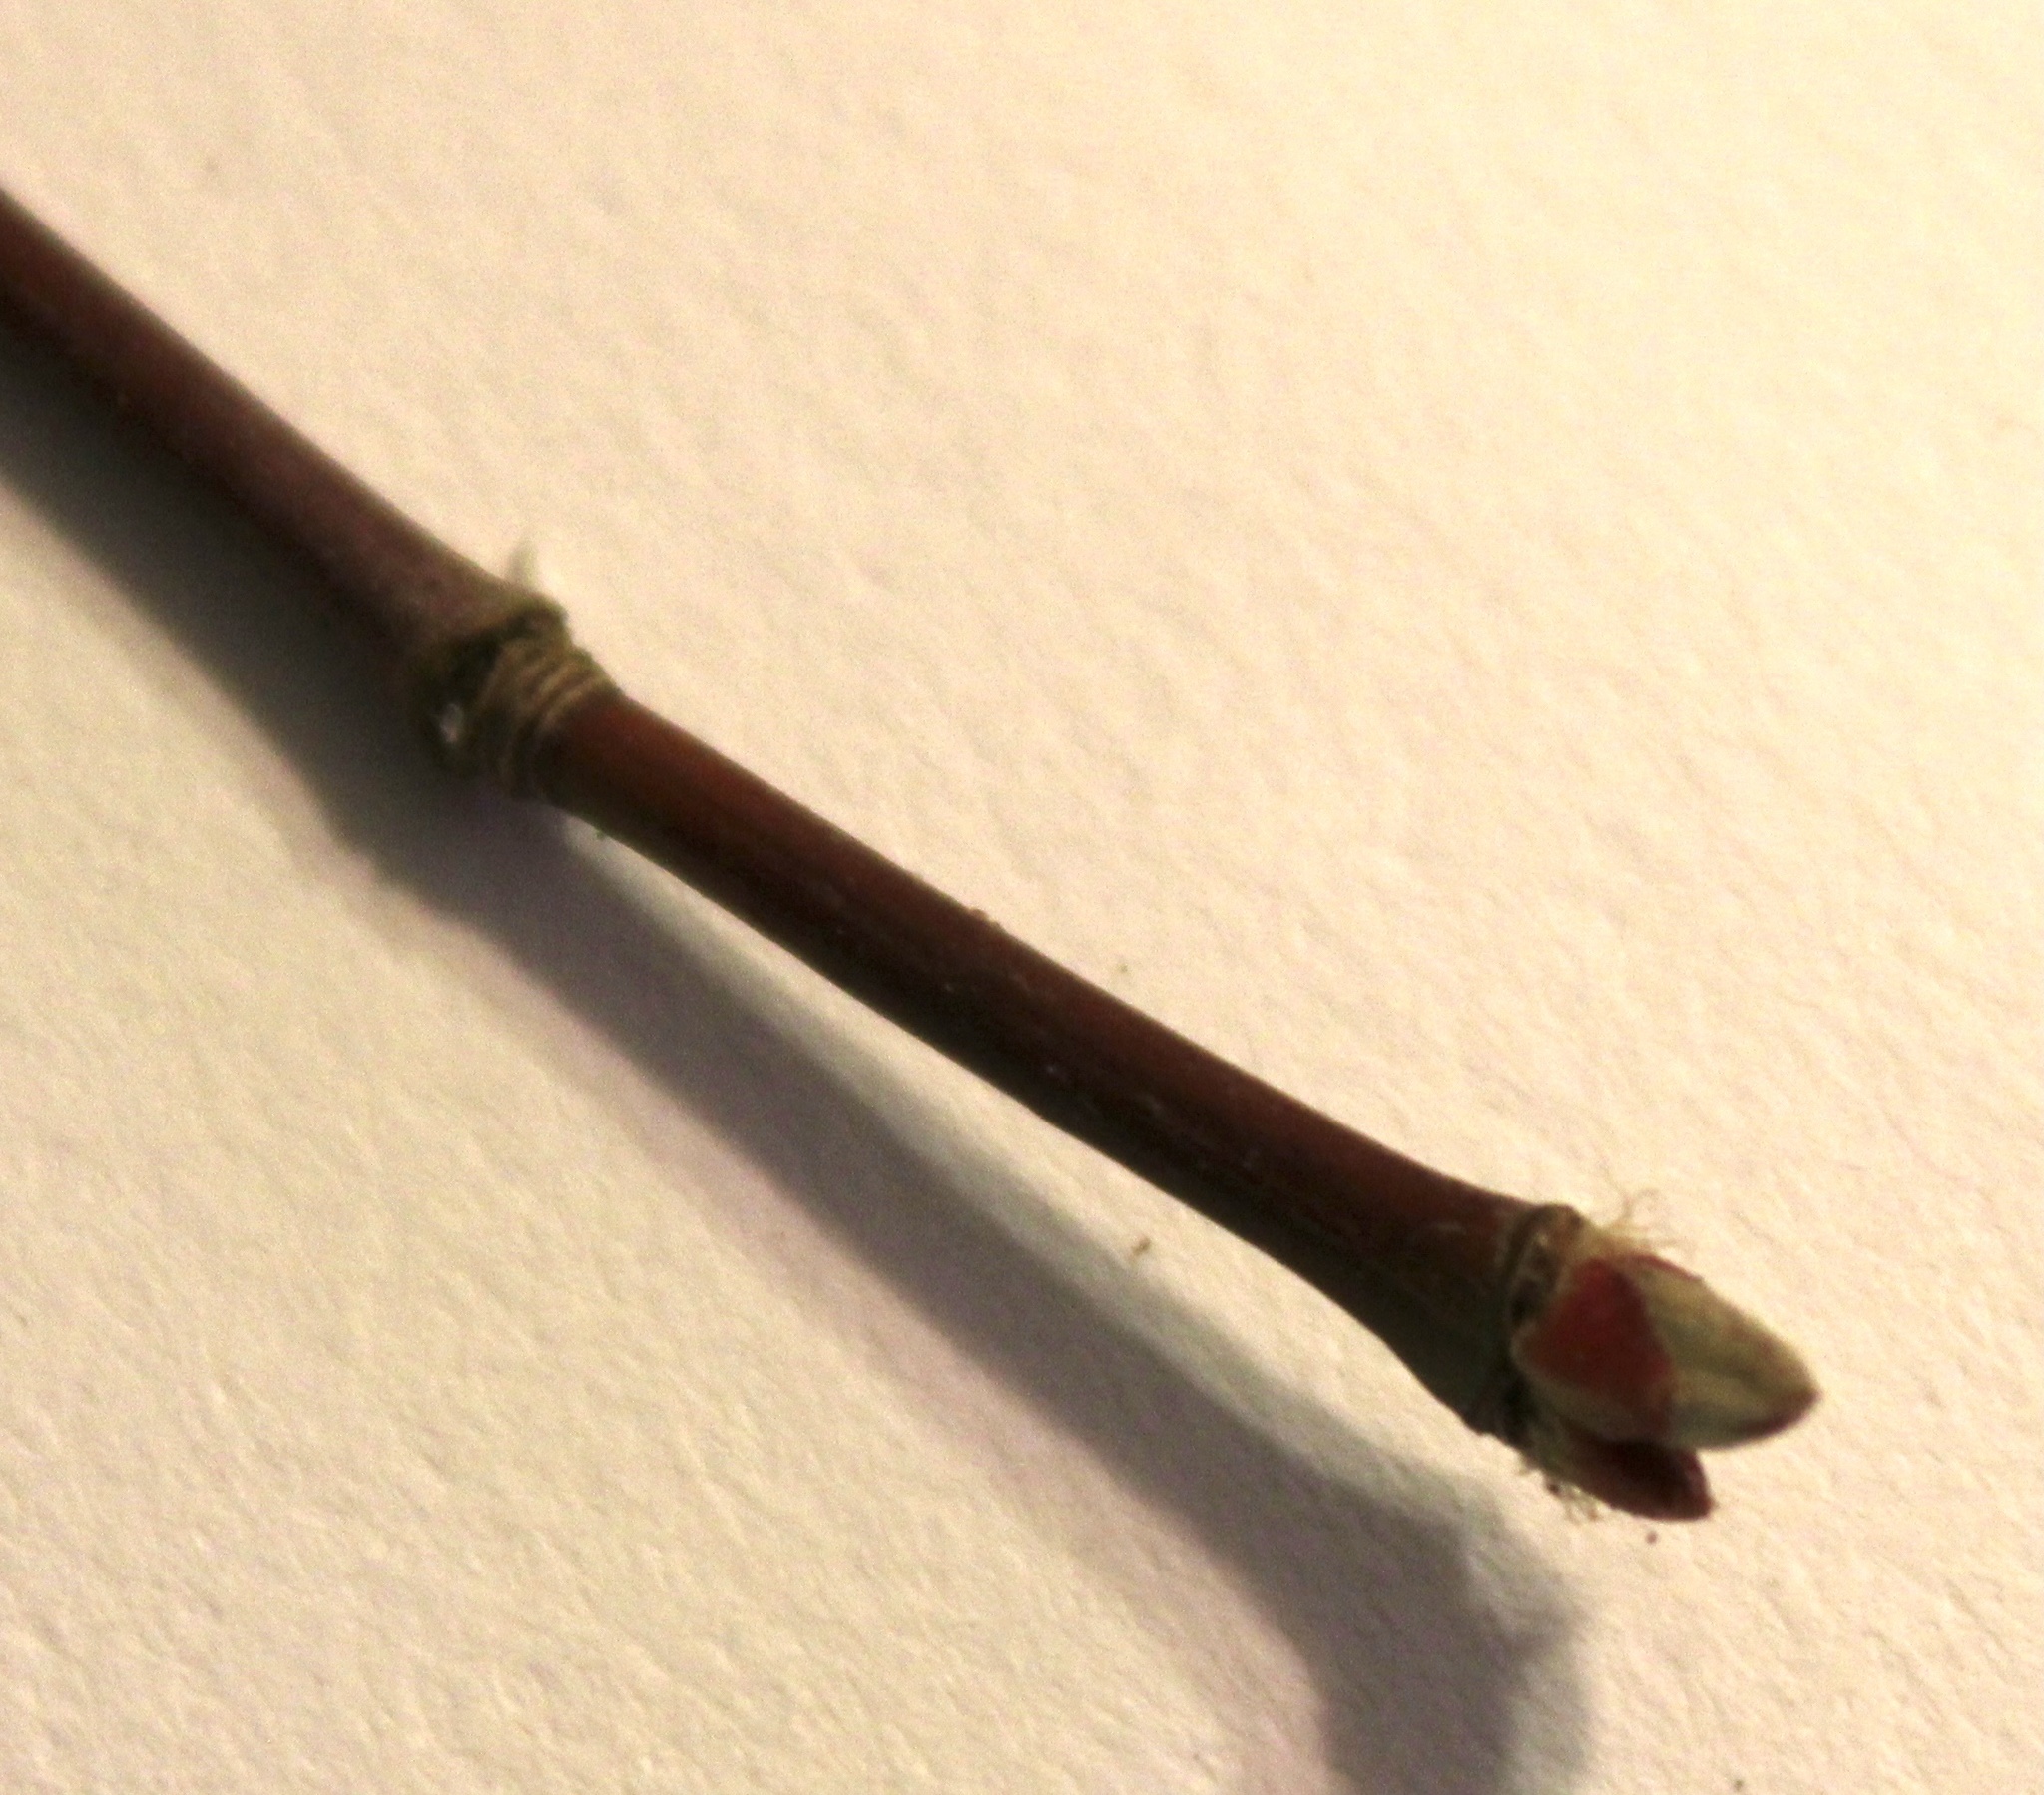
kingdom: Plantae
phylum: Tracheophyta
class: Magnoliopsida
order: Sapindales
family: Sapindaceae
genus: Acer
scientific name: Acer circinatum
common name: Vine maple
